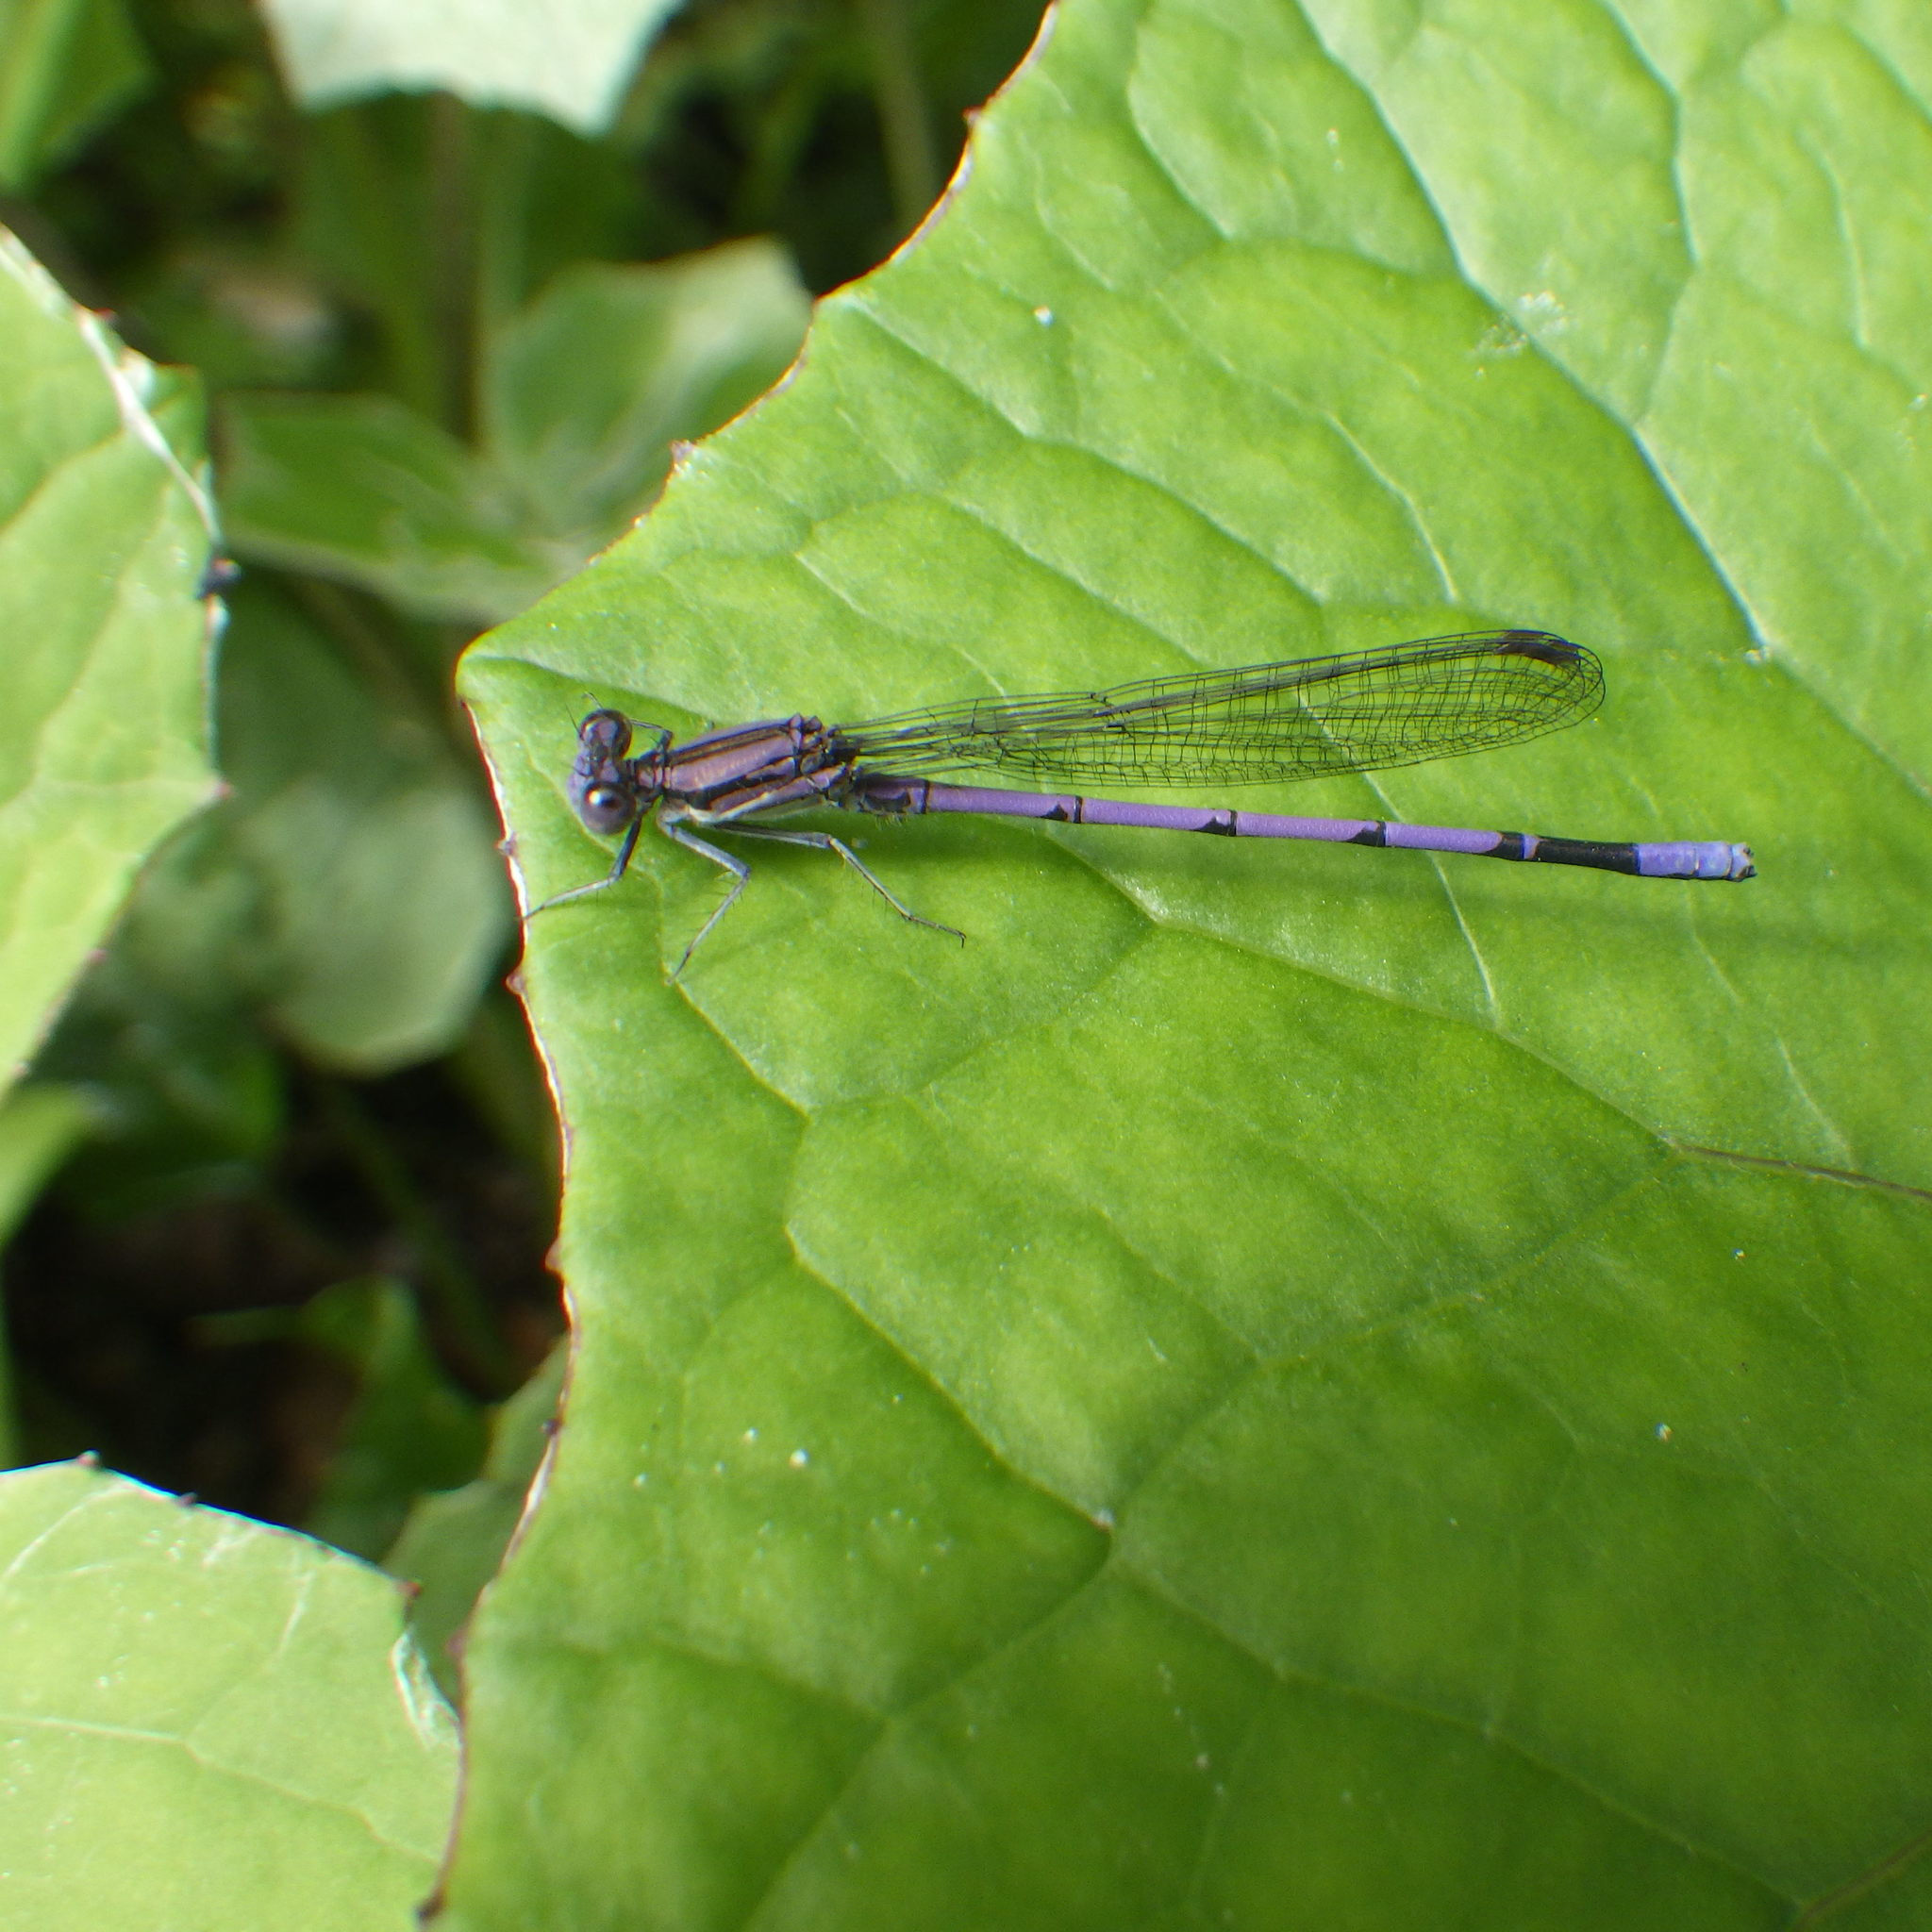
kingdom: Animalia
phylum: Arthropoda
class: Insecta
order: Odonata
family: Coenagrionidae
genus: Argia
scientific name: Argia fumipennis
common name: Variable dancer
